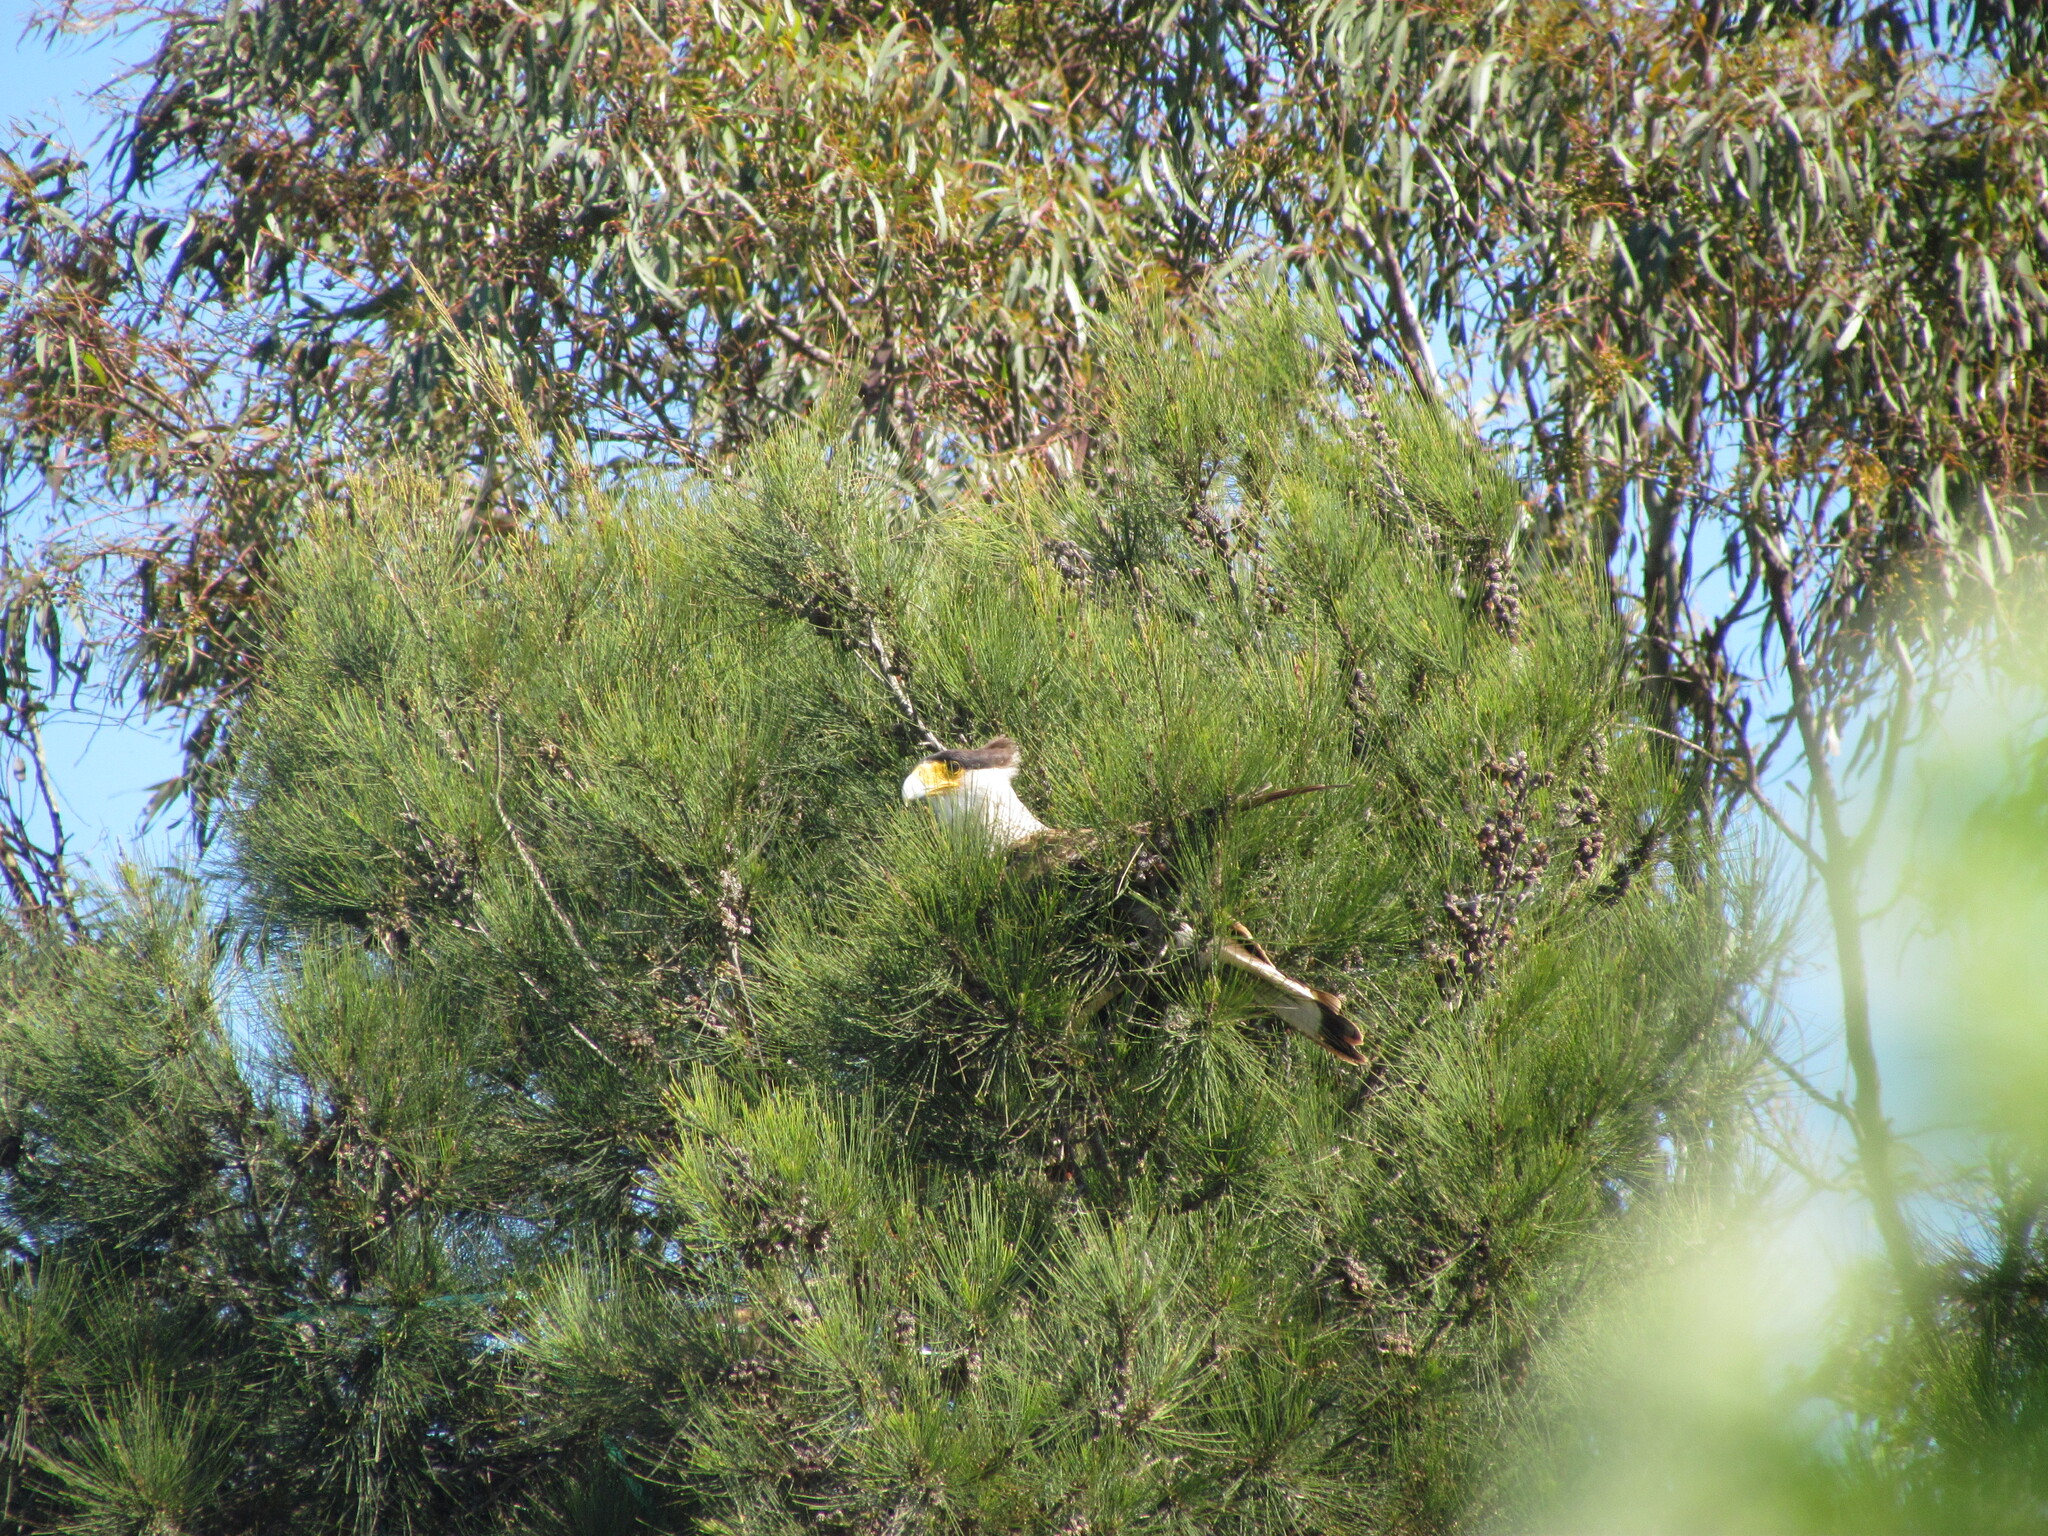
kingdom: Animalia
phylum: Chordata
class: Aves
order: Falconiformes
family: Falconidae
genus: Caracara
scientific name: Caracara plancus
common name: Southern caracara
